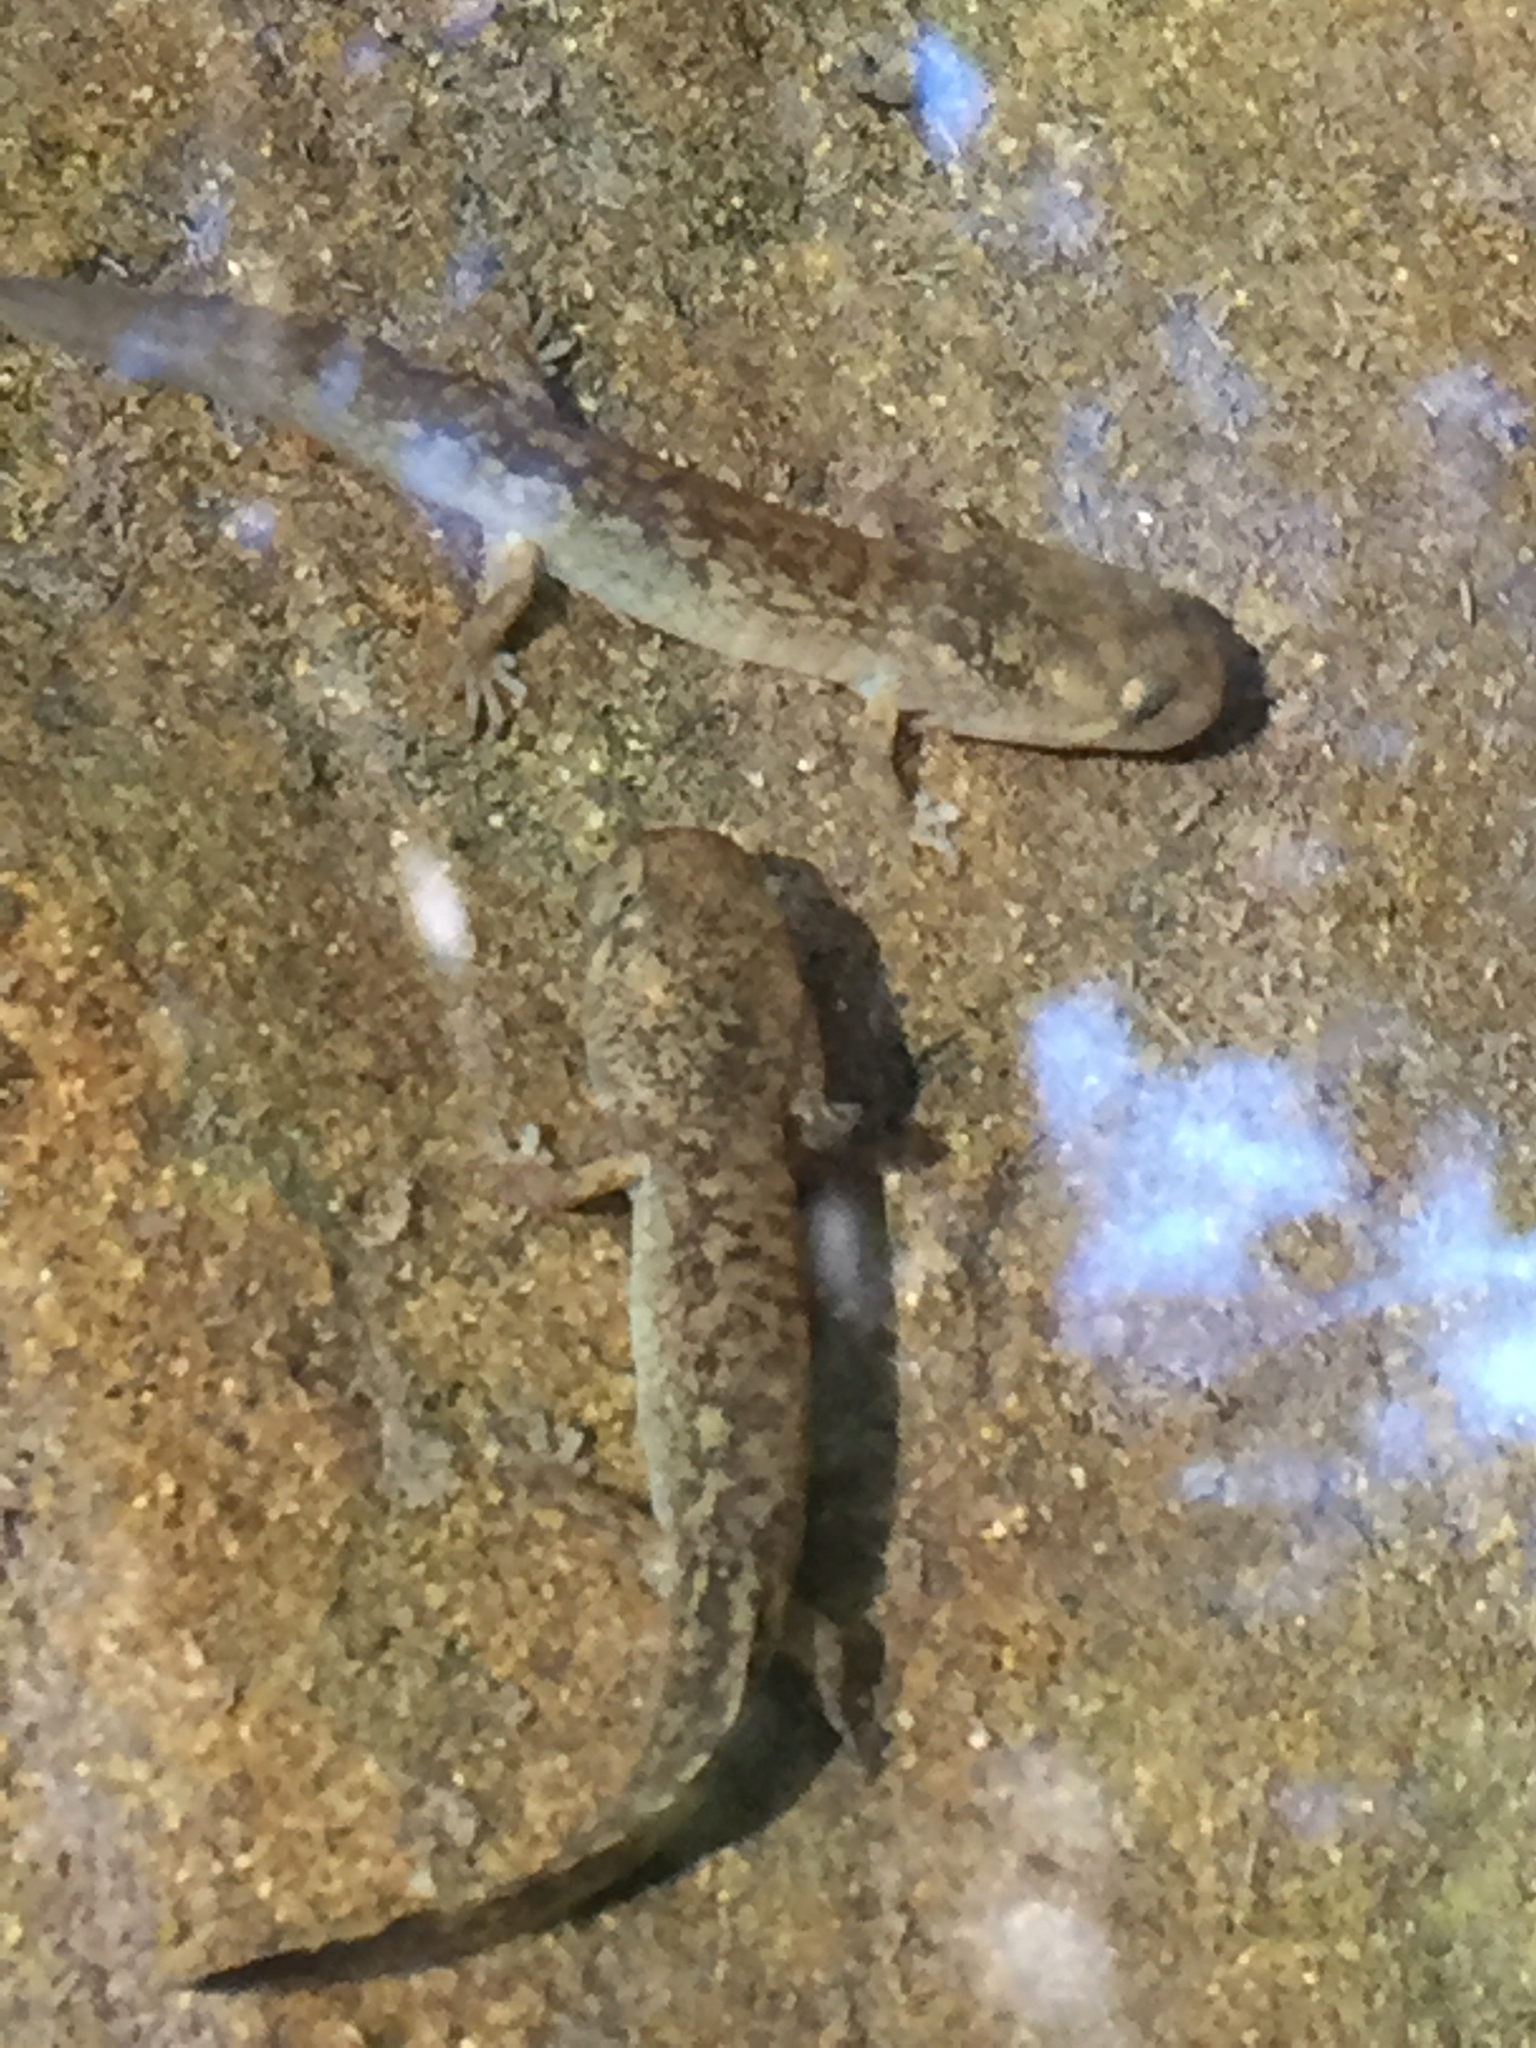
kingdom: Animalia
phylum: Chordata
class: Amphibia
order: Caudata
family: Ambystomatidae
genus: Dicamptodon
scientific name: Dicamptodon ensatus
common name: California giant salamander
